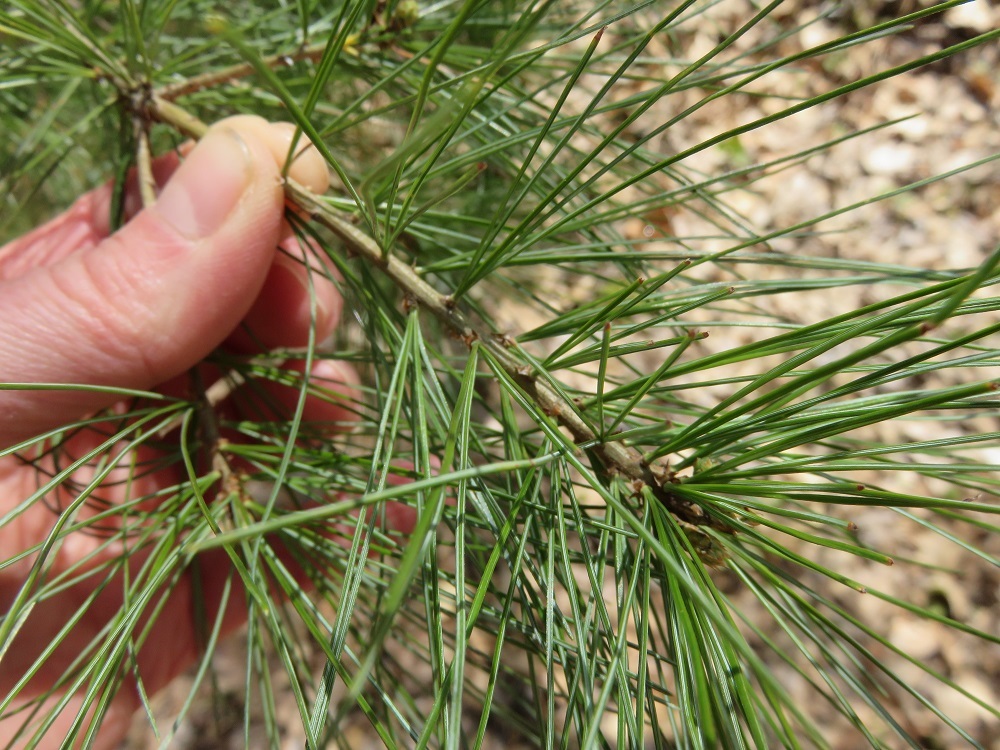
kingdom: Plantae
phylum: Tracheophyta
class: Pinopsida
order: Pinales
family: Pinaceae
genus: Pinus
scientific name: Pinus strobus
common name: Weymouth pine
